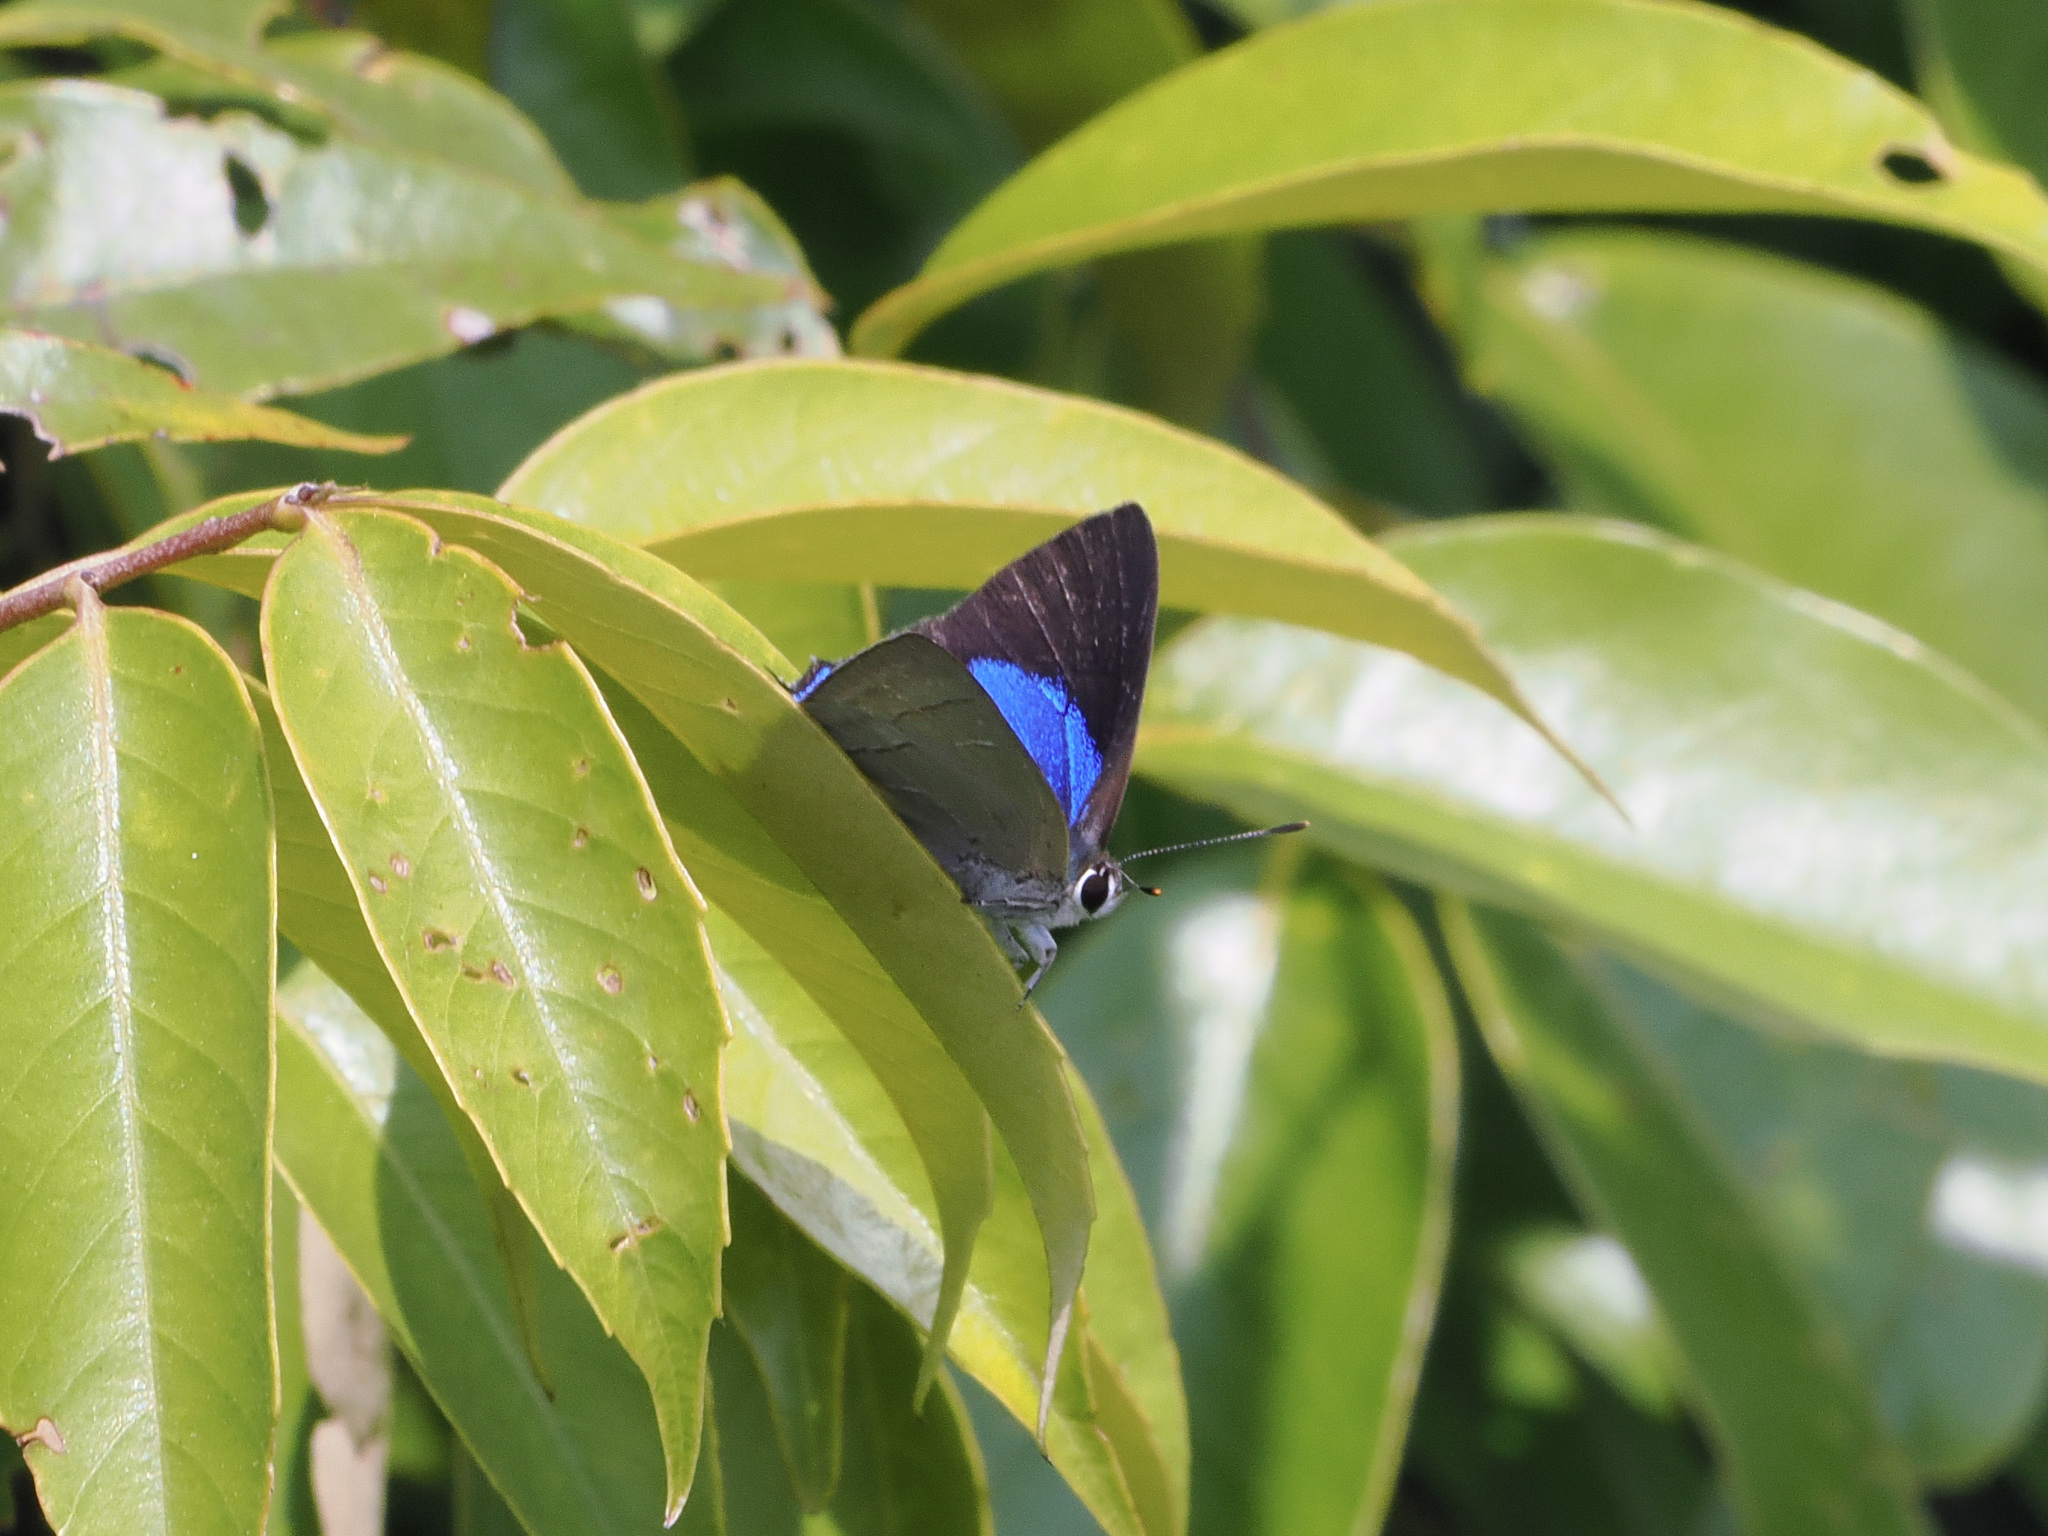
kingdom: Animalia
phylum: Arthropoda
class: Insecta
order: Lepidoptera
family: Lycaenidae
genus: Pratapa
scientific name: Pratapa icetas
